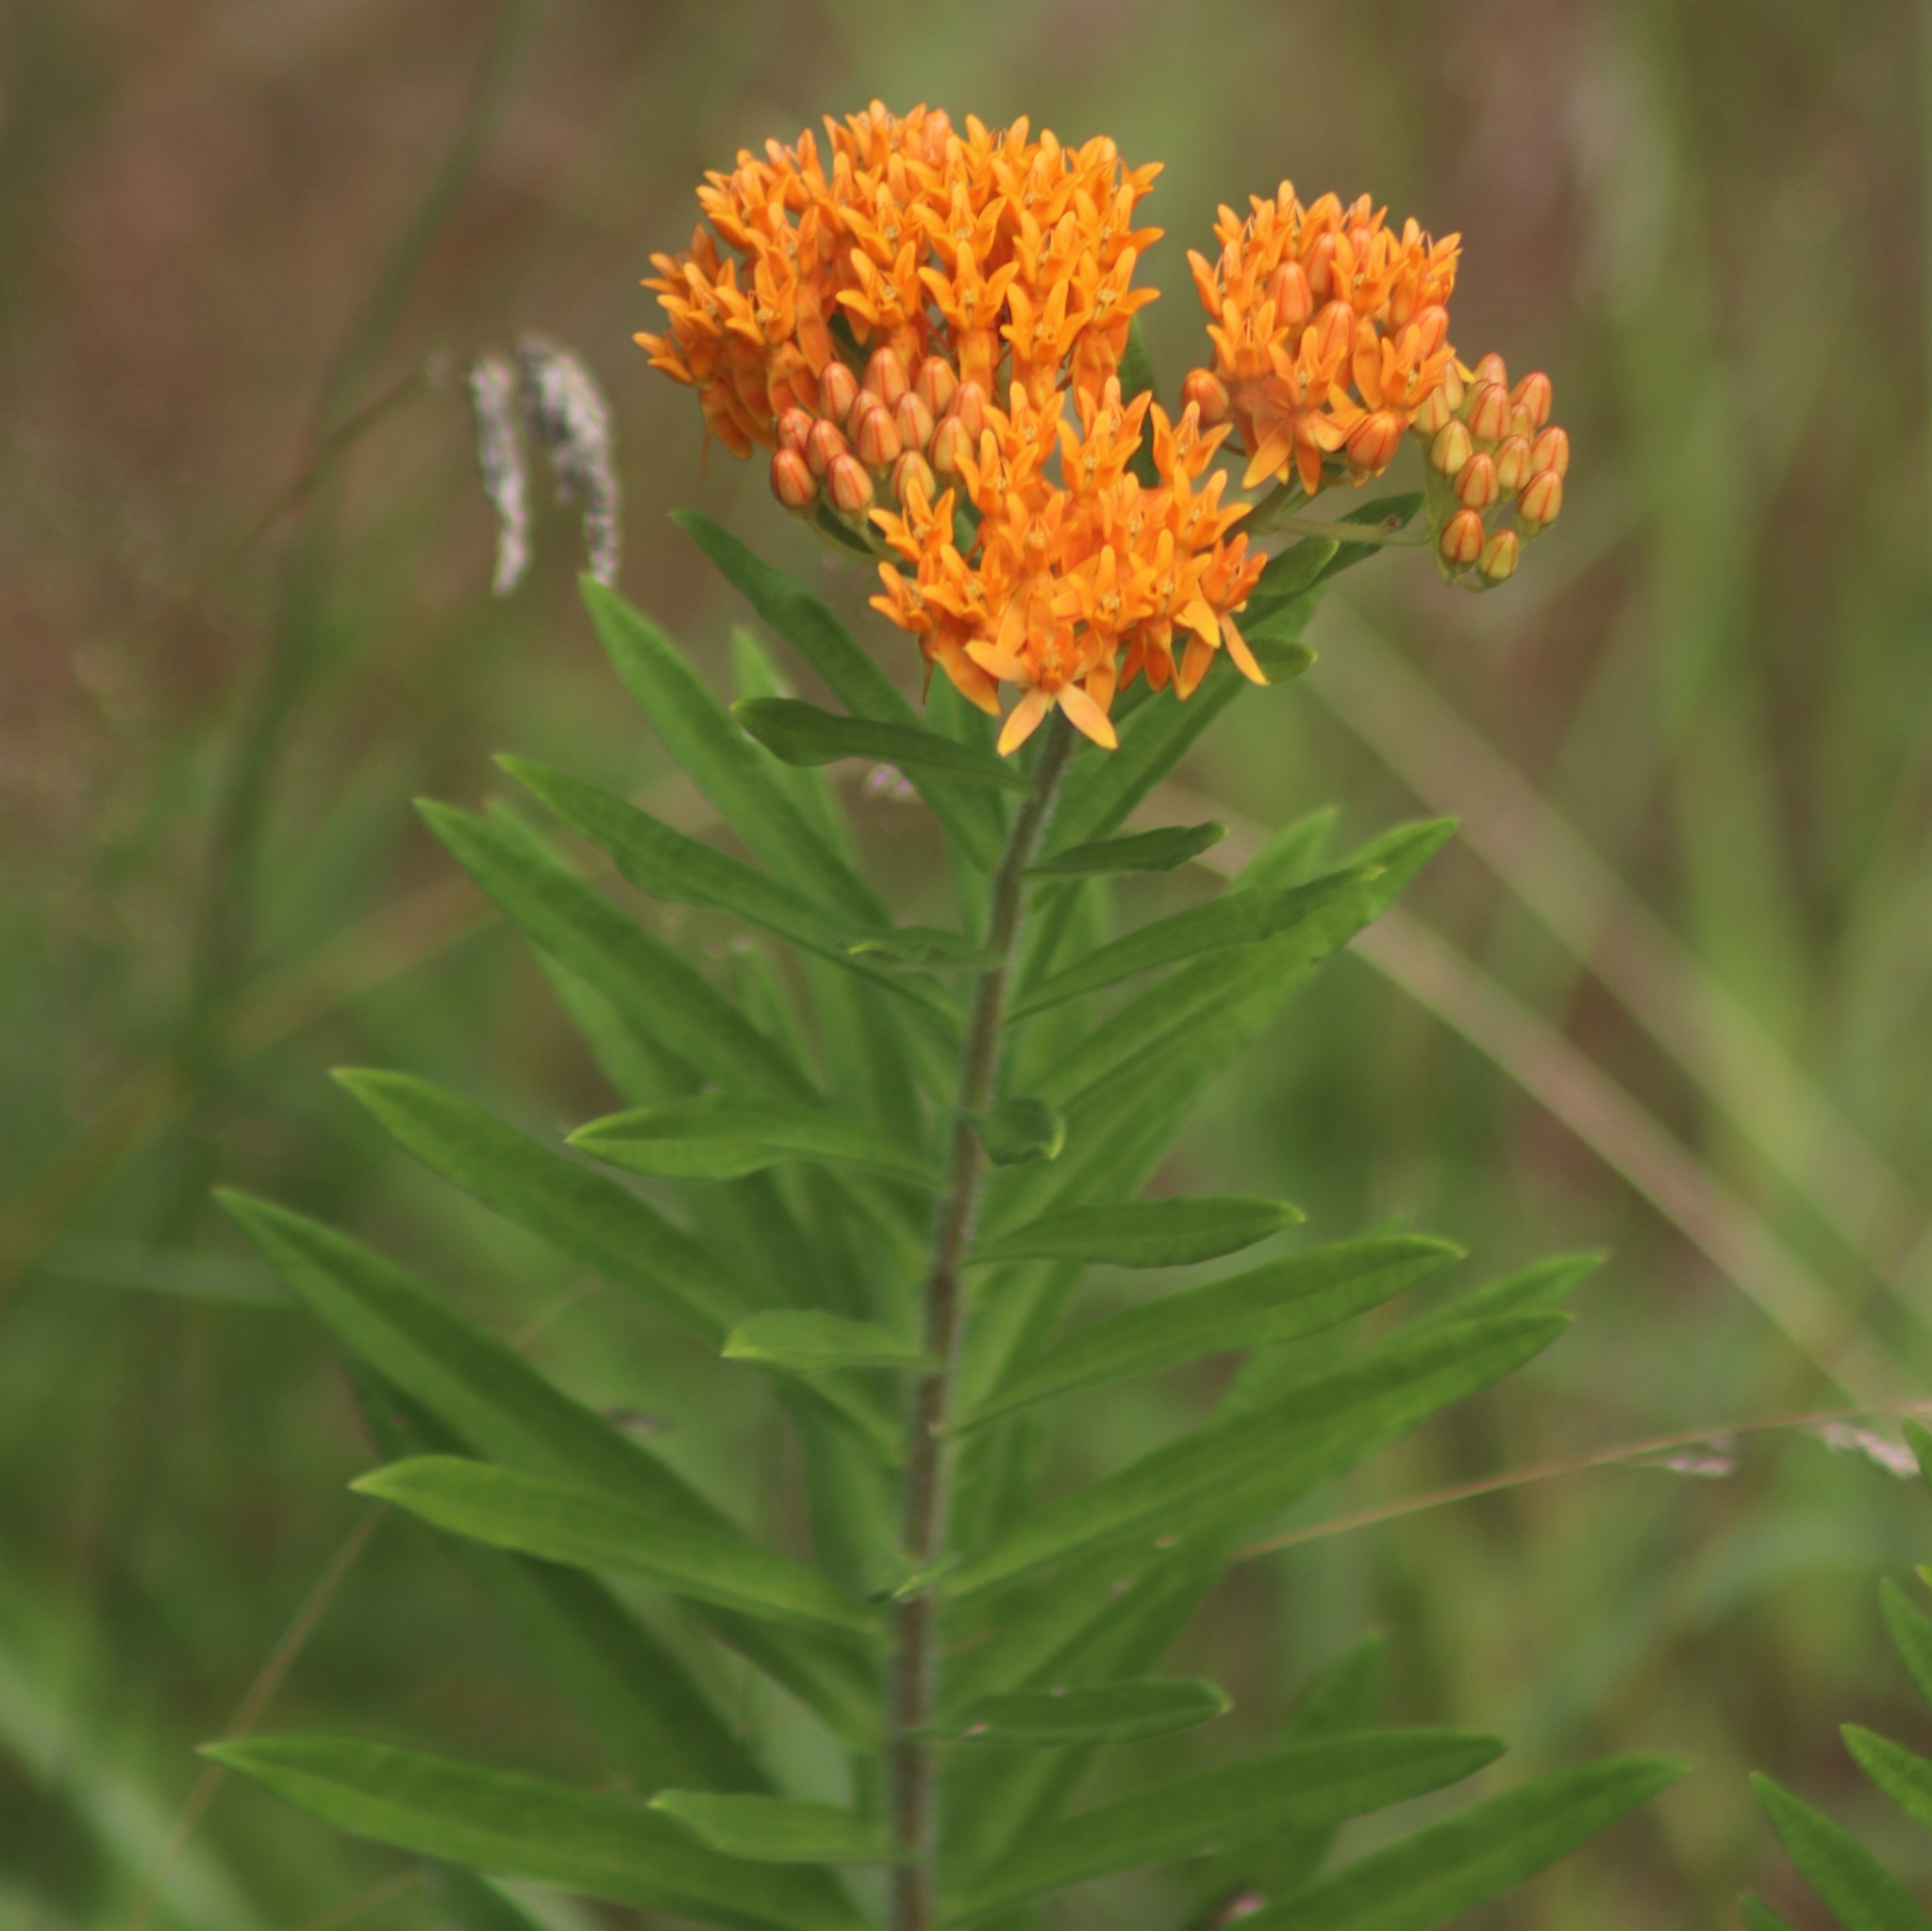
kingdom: Plantae
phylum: Tracheophyta
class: Magnoliopsida
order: Gentianales
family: Apocynaceae
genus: Asclepias
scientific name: Asclepias tuberosa
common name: Butterfly milkweed
